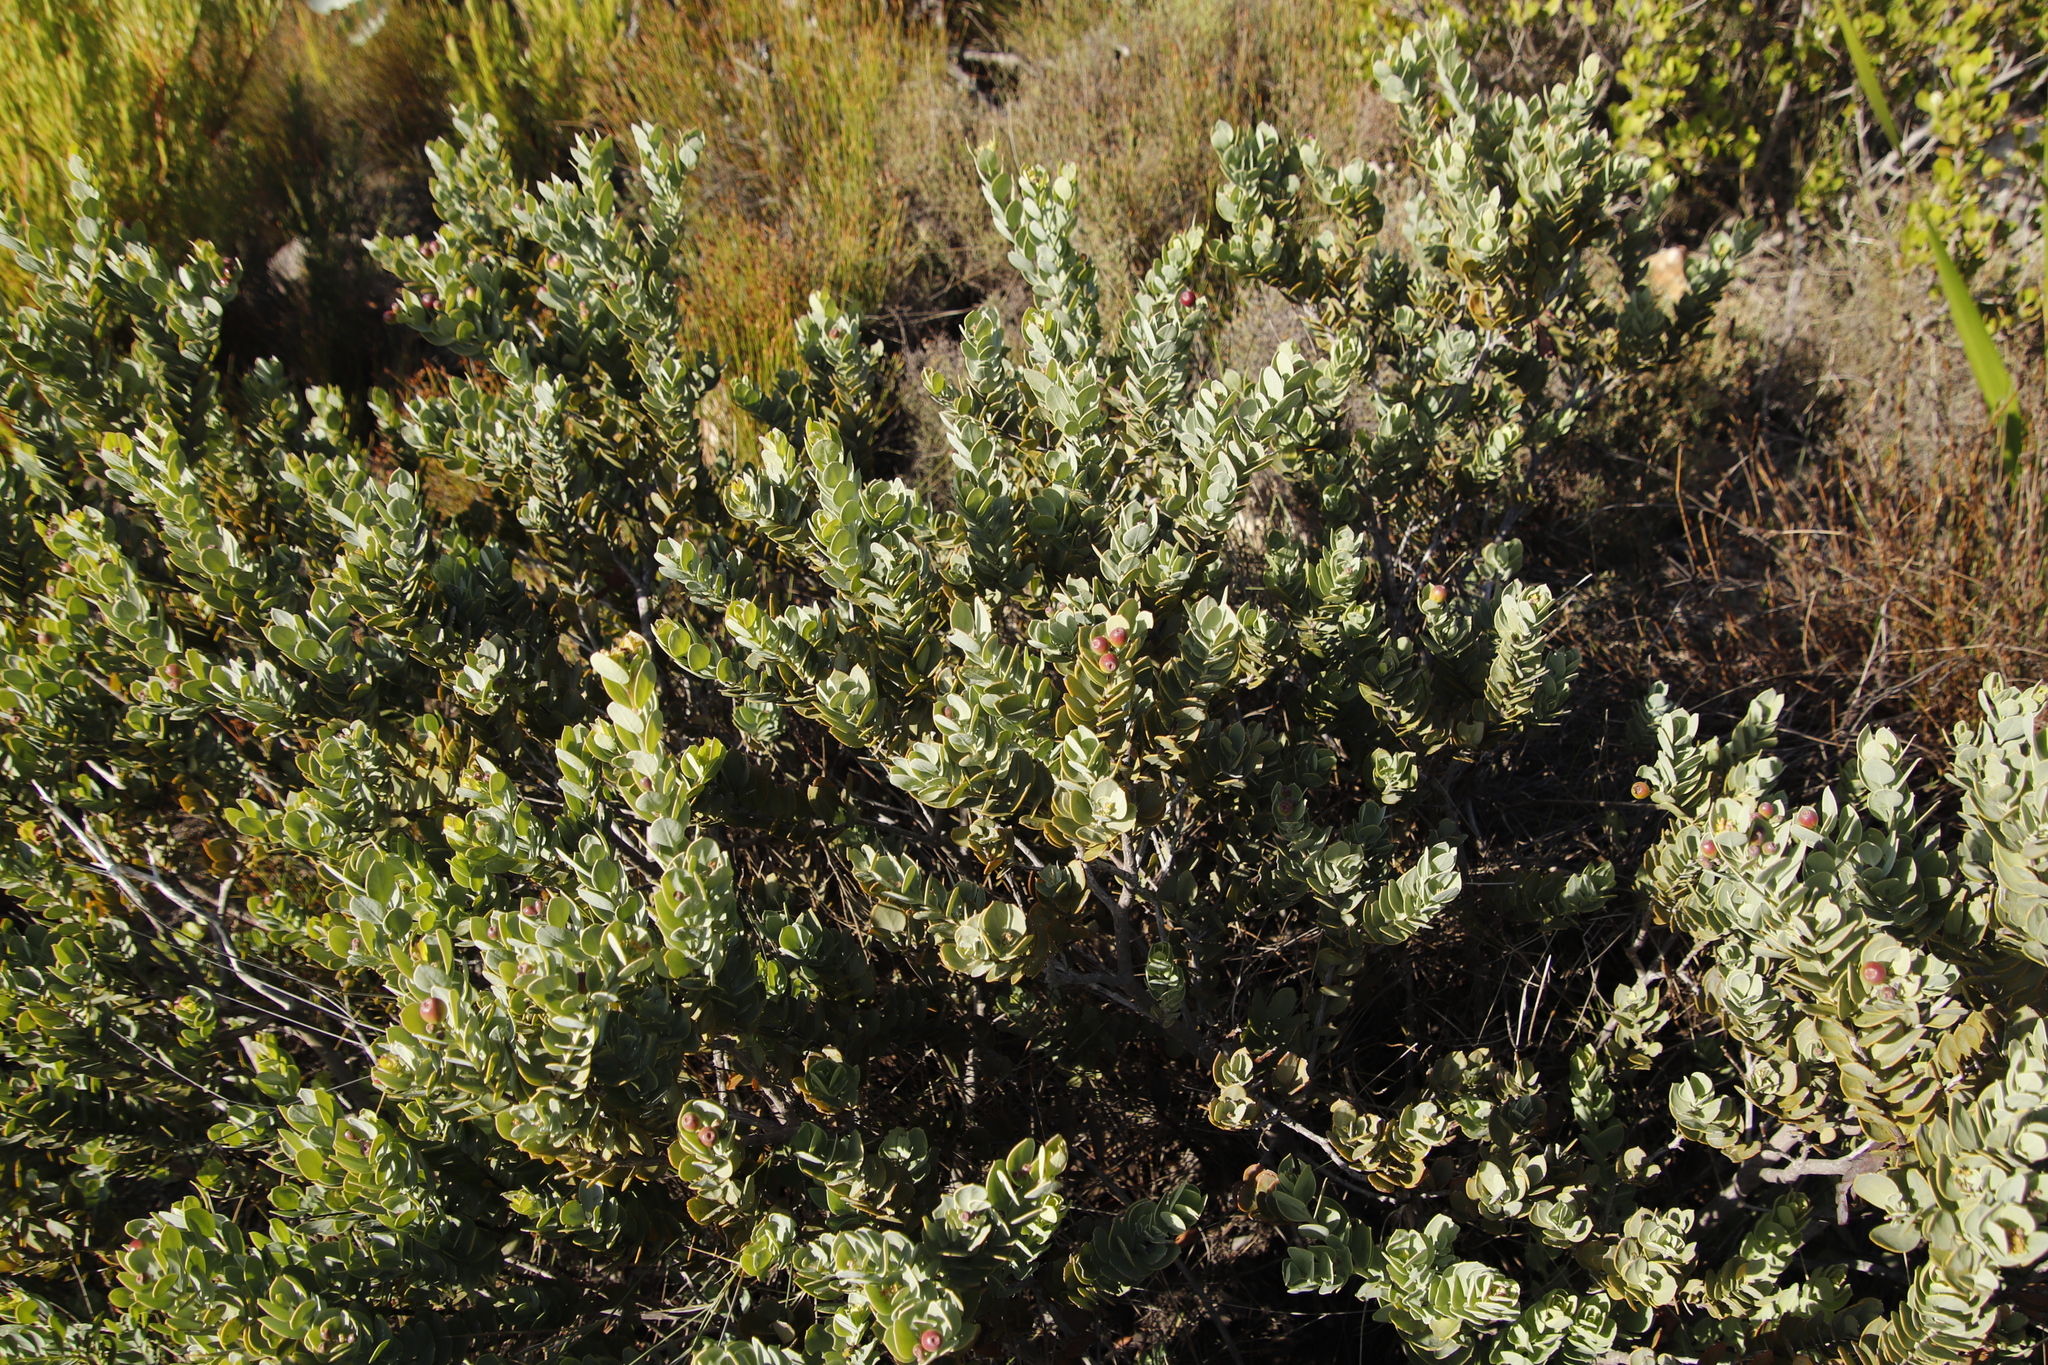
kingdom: Plantae
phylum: Tracheophyta
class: Magnoliopsida
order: Santalales
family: Santalaceae
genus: Osyris
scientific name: Osyris compressa
